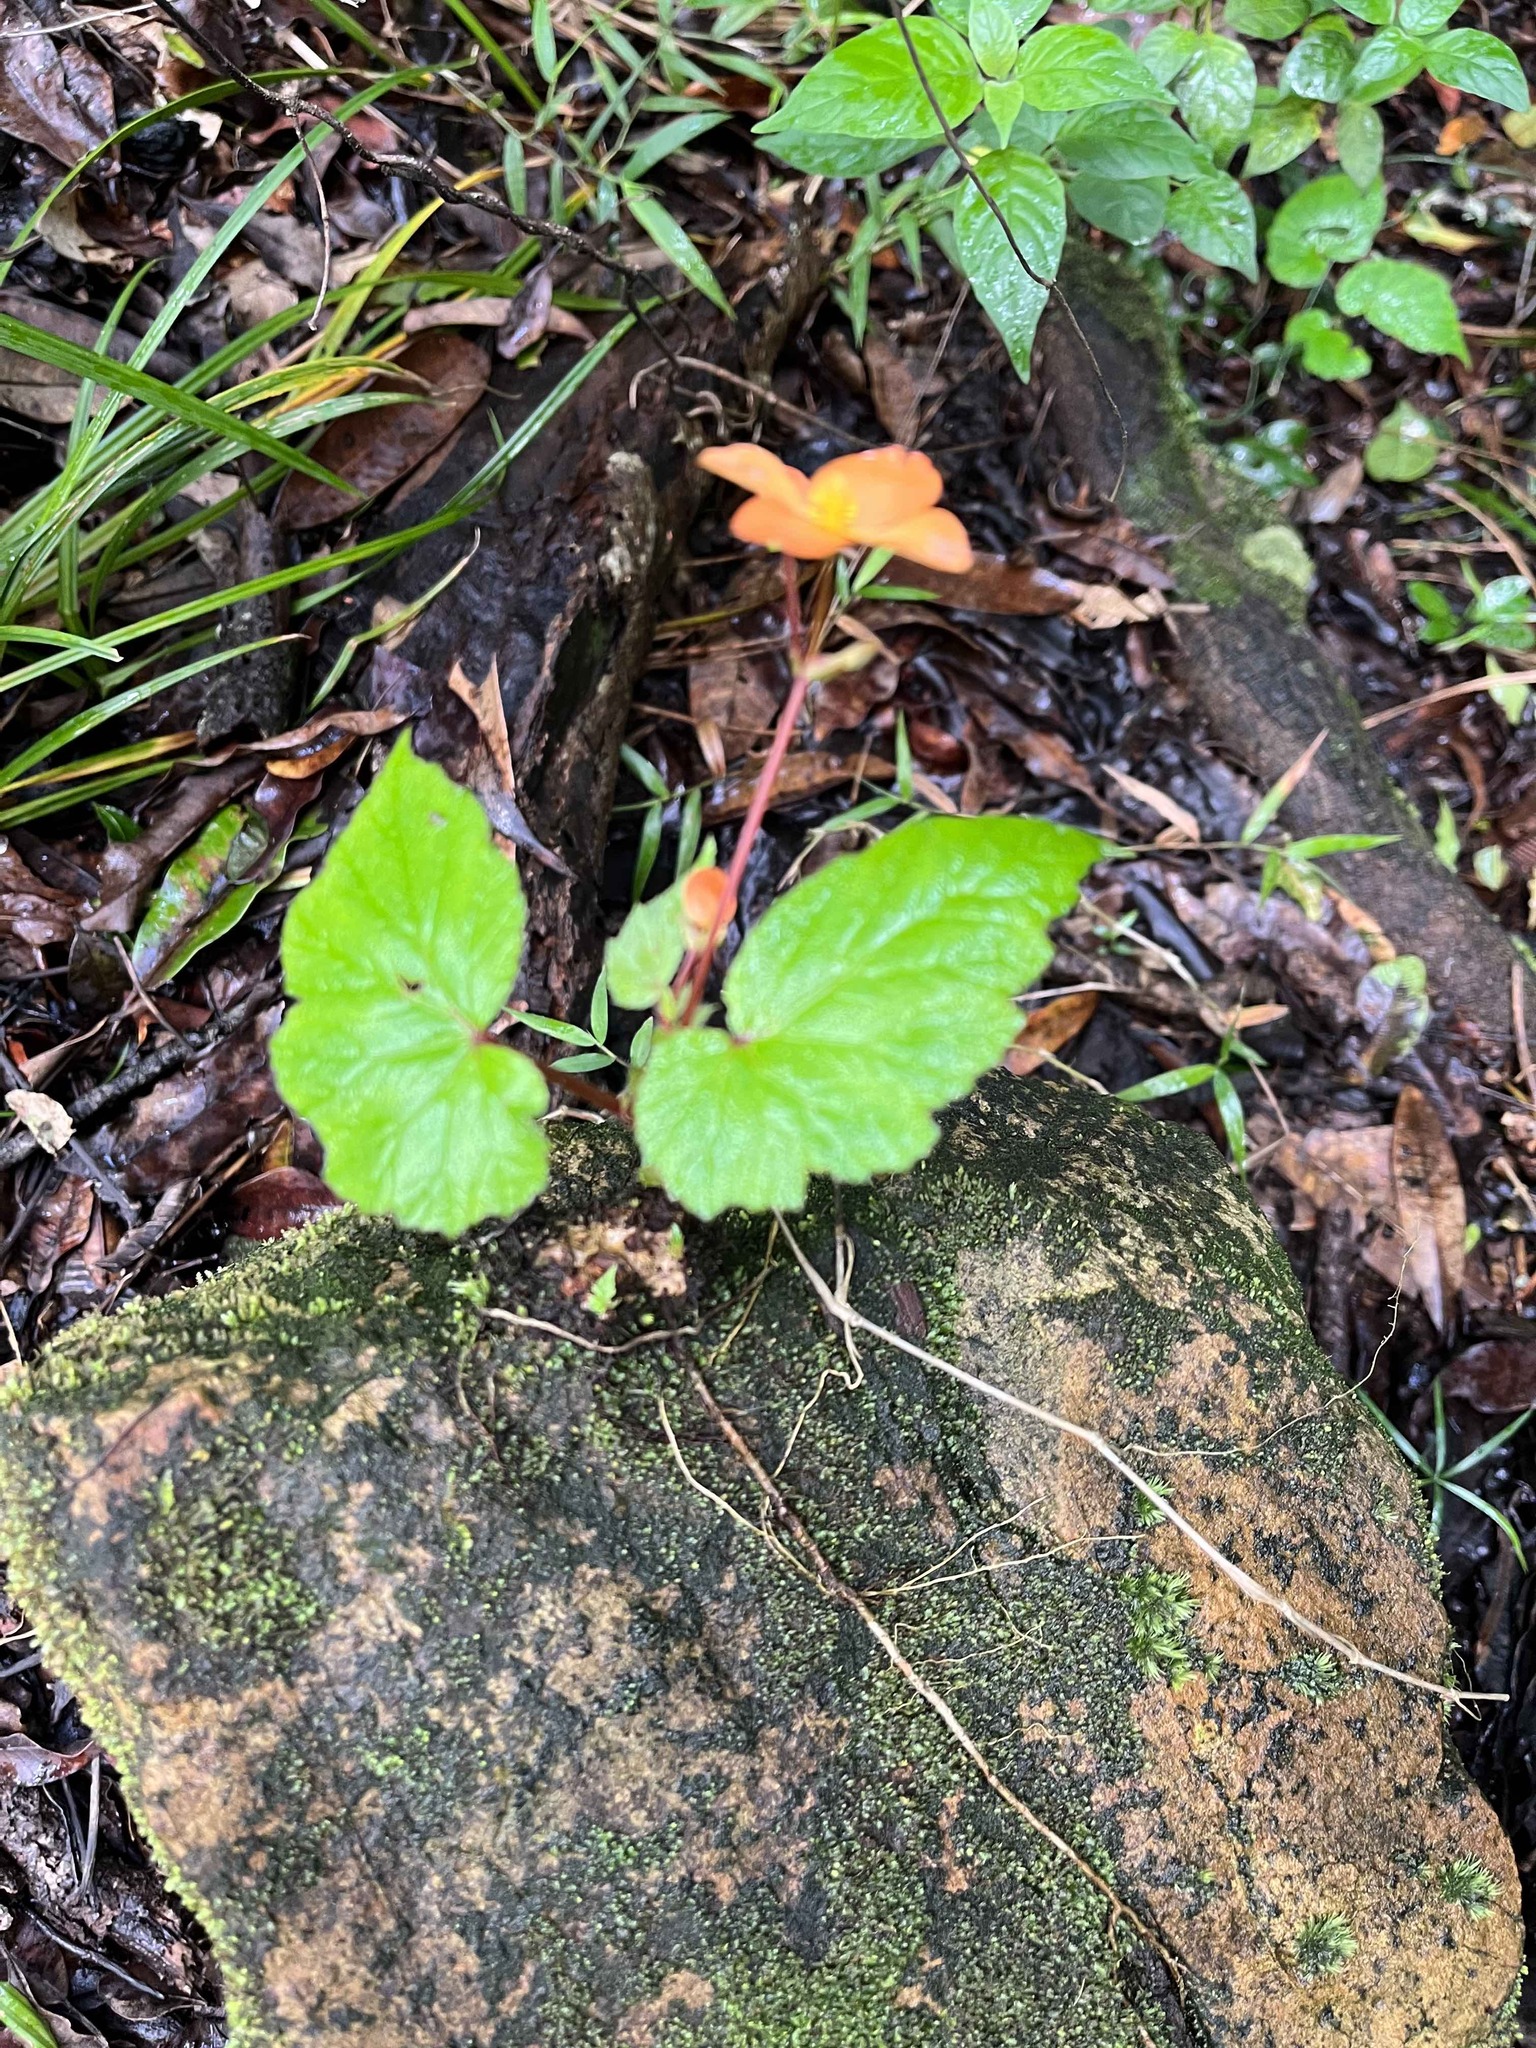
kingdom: Plantae
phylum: Tracheophyta
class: Magnoliopsida
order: Cucurbitales
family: Begoniaceae
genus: Begonia
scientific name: Begonia sutherlandii
